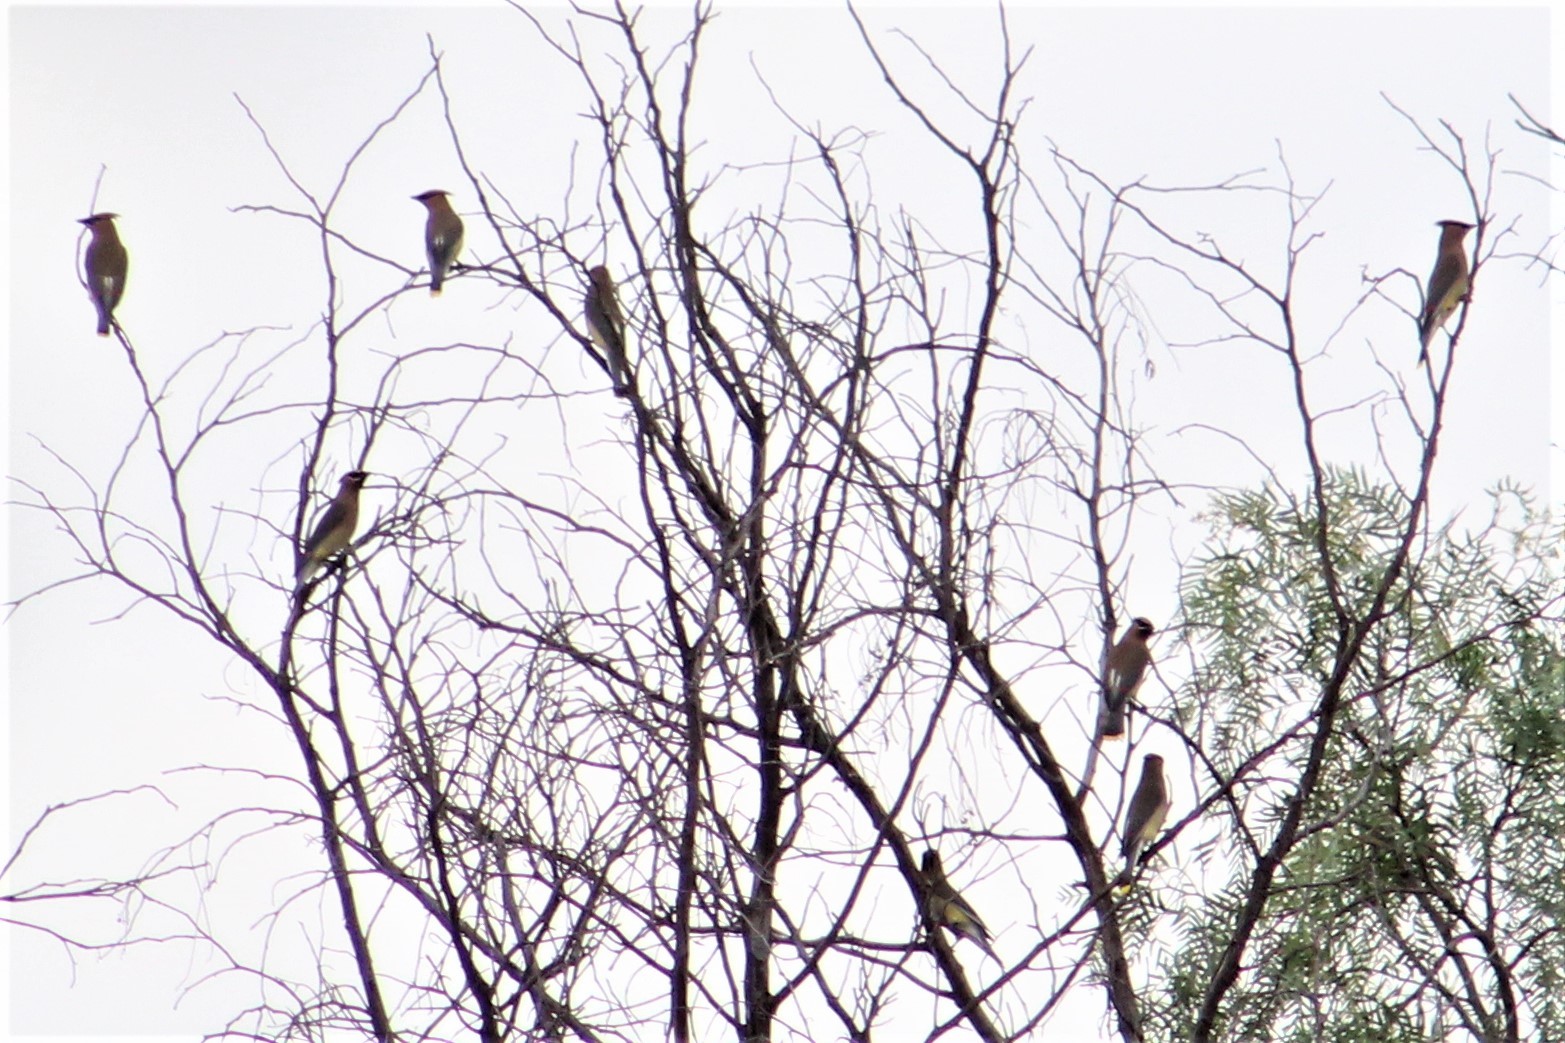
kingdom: Animalia
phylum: Chordata
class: Aves
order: Passeriformes
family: Bombycillidae
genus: Bombycilla
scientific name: Bombycilla cedrorum
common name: Cedar waxwing
